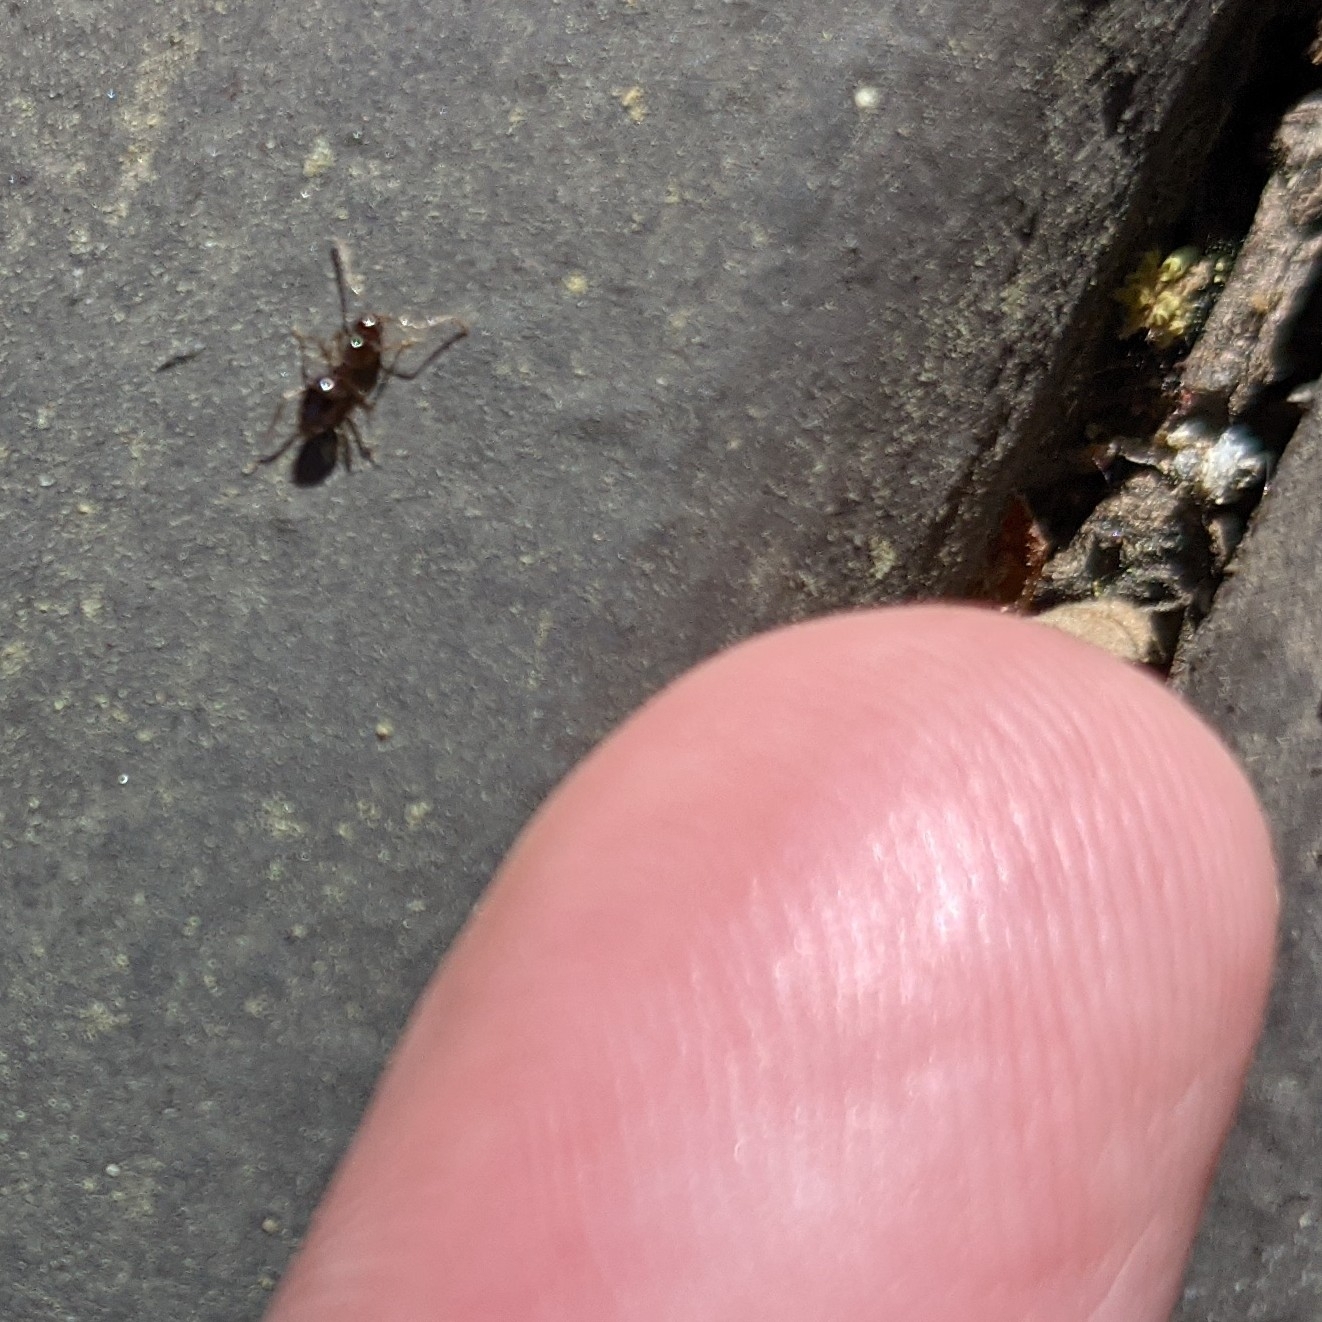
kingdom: Animalia
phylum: Arthropoda
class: Insecta
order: Hymenoptera
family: Formicidae
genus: Prenolepis
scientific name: Prenolepis imparis
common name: Small honey ant
